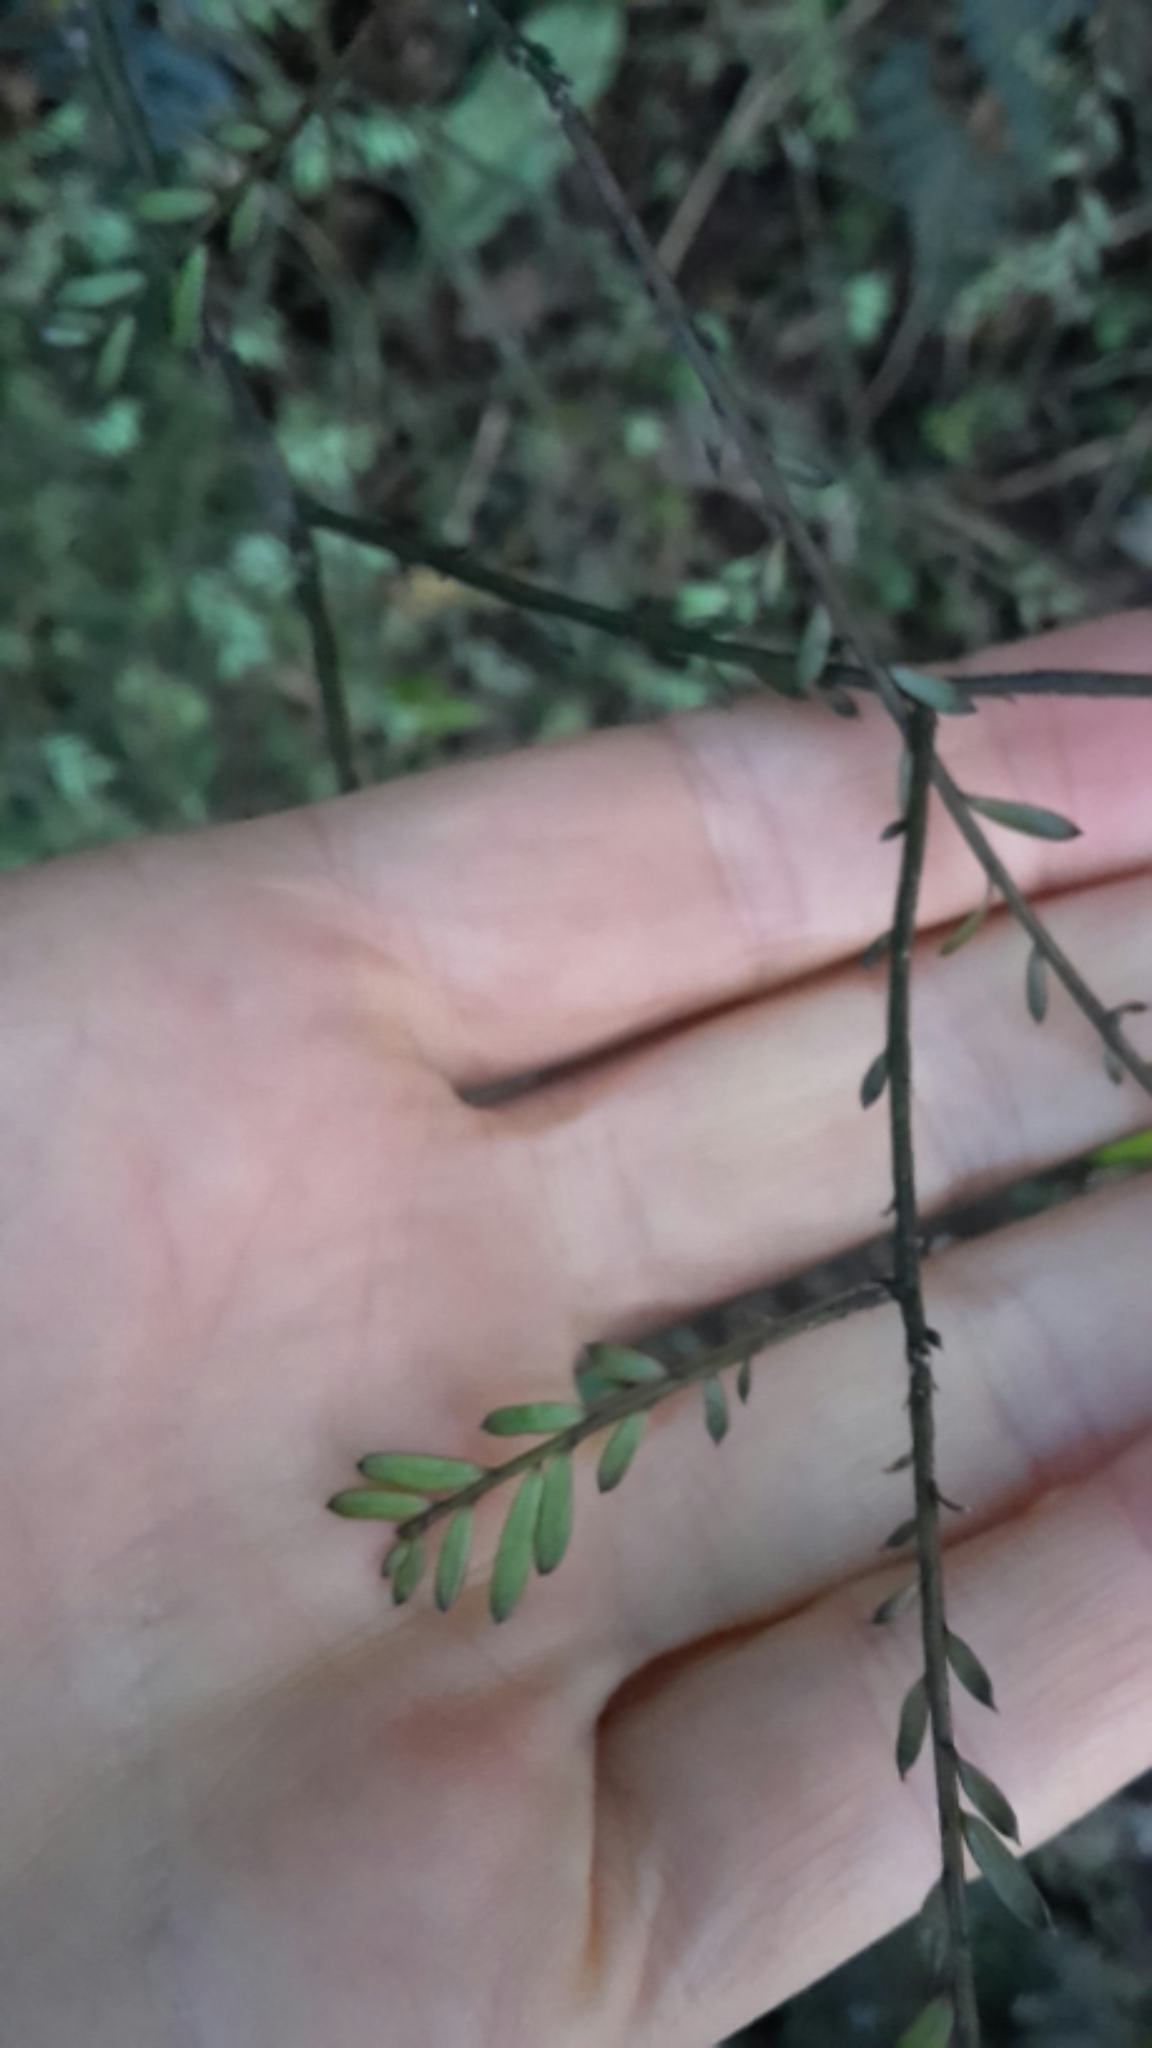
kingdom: Plantae
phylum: Tracheophyta
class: Pinopsida
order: Pinales
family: Podocarpaceae
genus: Prumnopitys
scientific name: Prumnopitys taxifolia
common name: Matai
